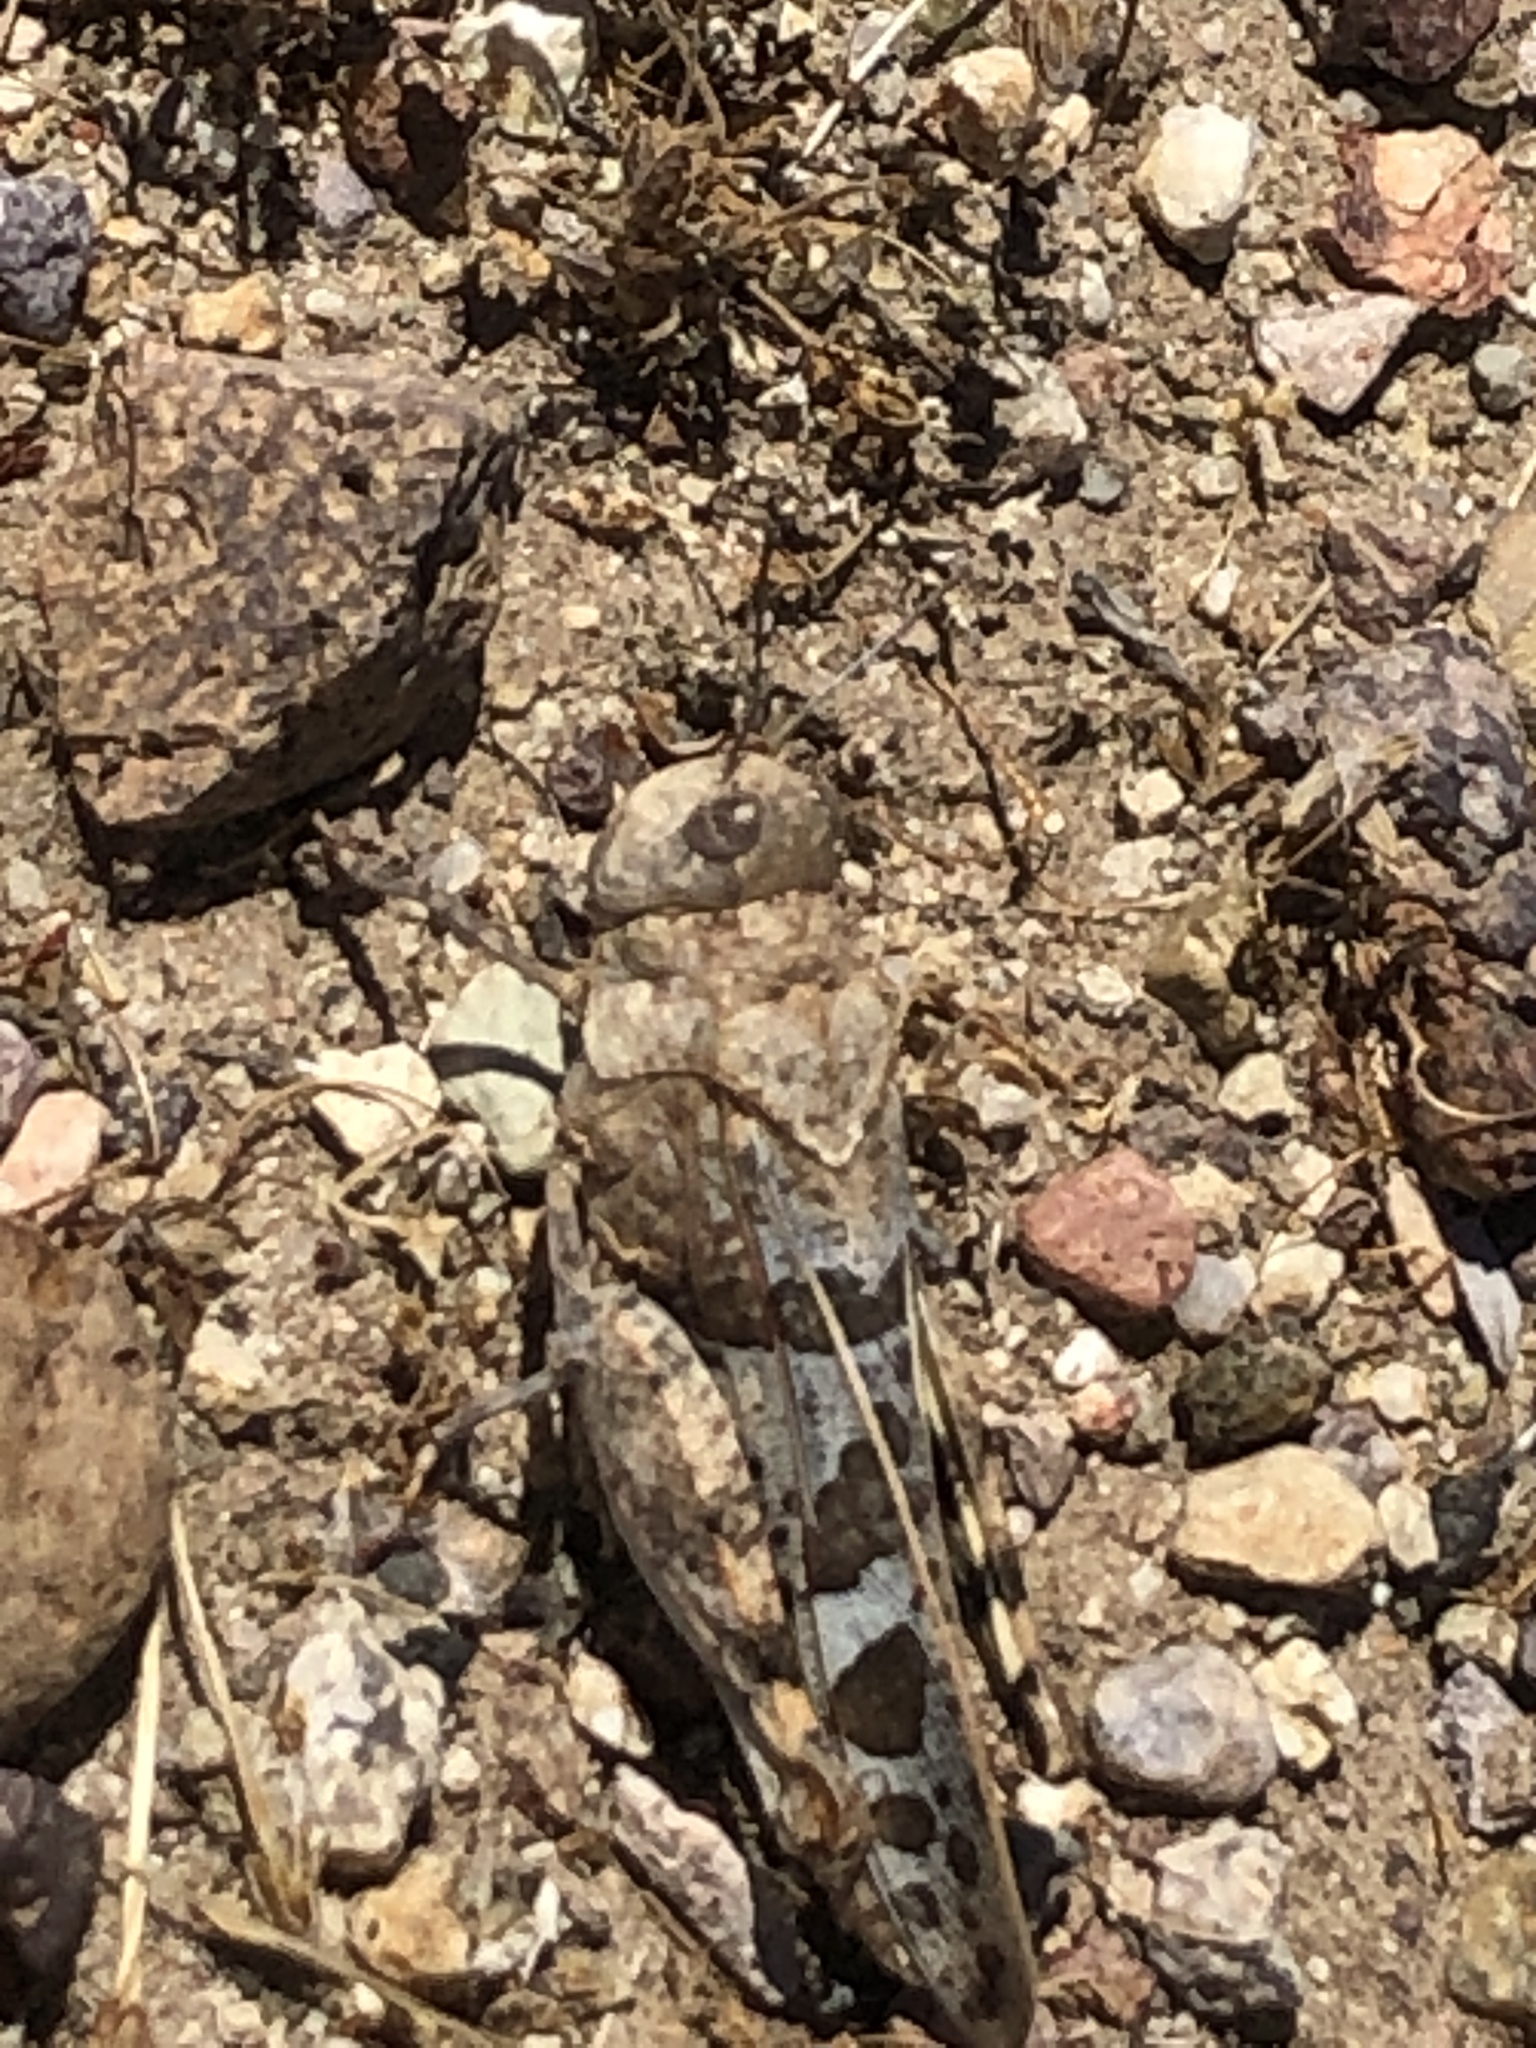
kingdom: Animalia
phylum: Arthropoda
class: Insecta
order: Orthoptera
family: Acrididae
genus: Leprus
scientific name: Leprus intermedius
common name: Saussure's blue-winged grasshopper
